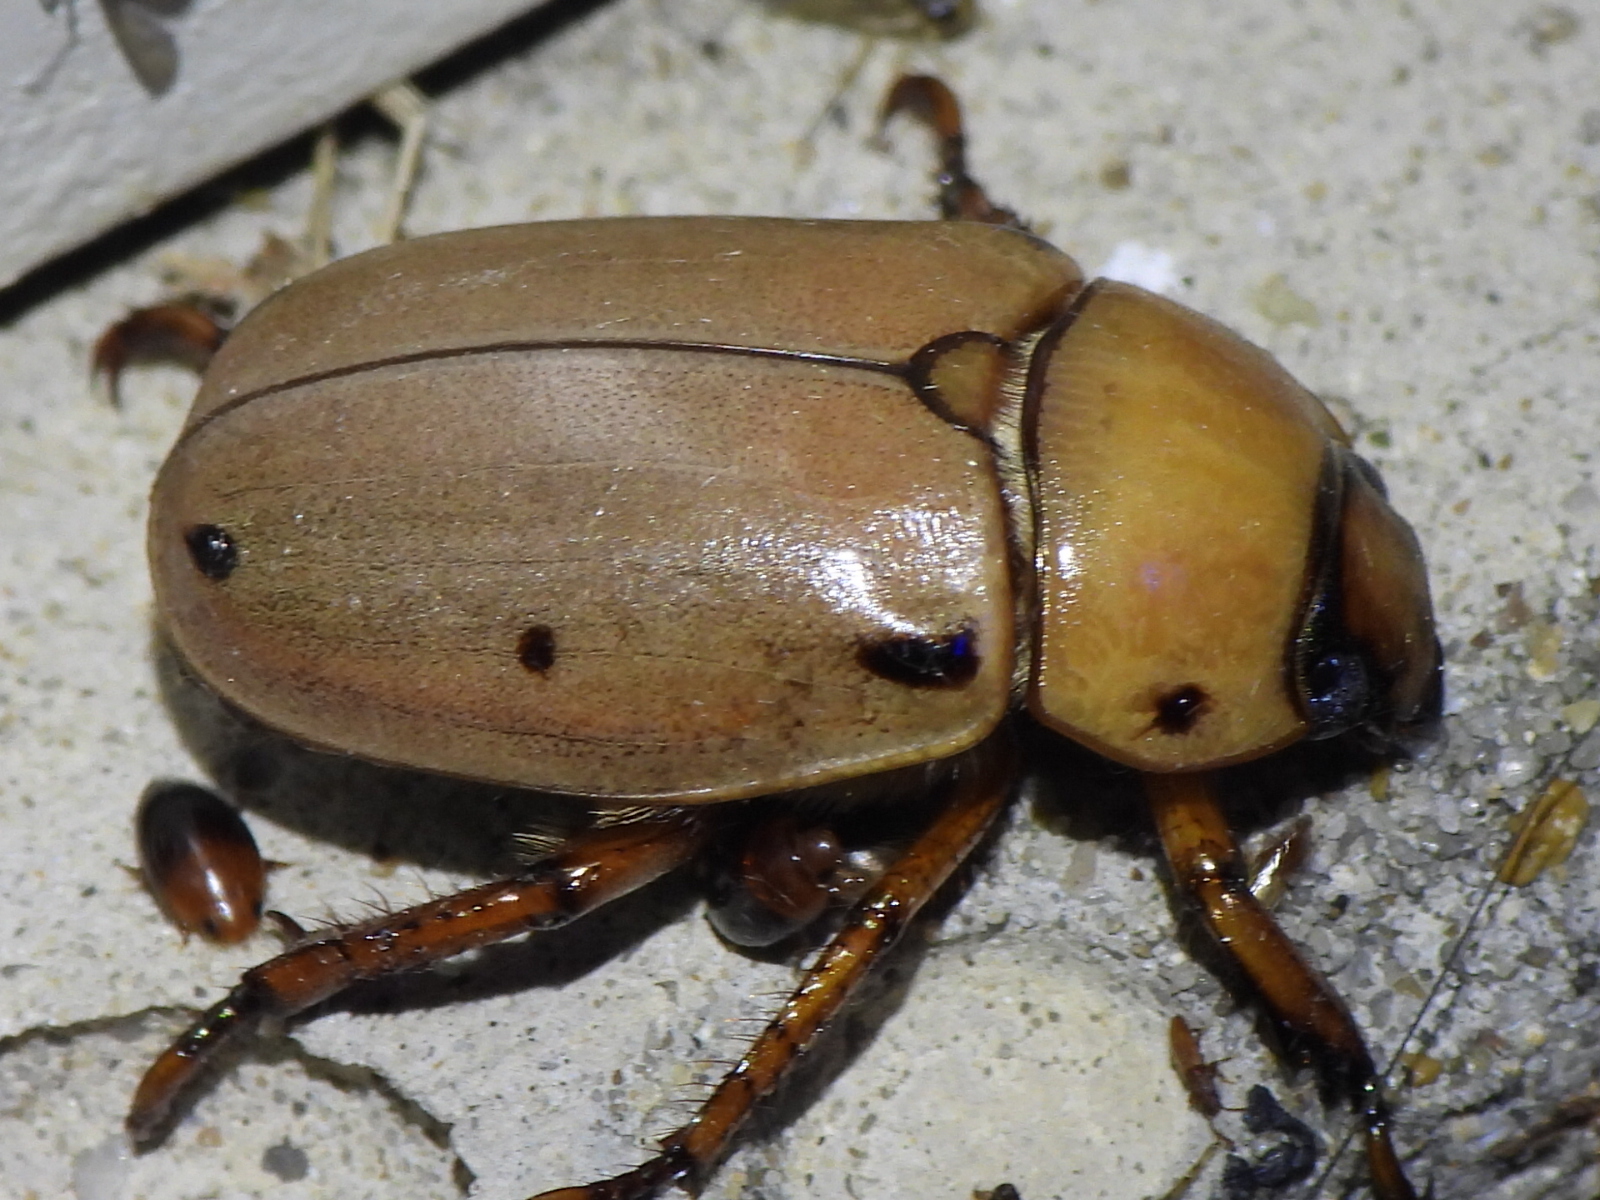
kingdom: Animalia
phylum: Arthropoda
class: Insecta
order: Coleoptera
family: Scarabaeidae
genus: Pelidnota
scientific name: Pelidnota punctata
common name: Grapevine beetle
